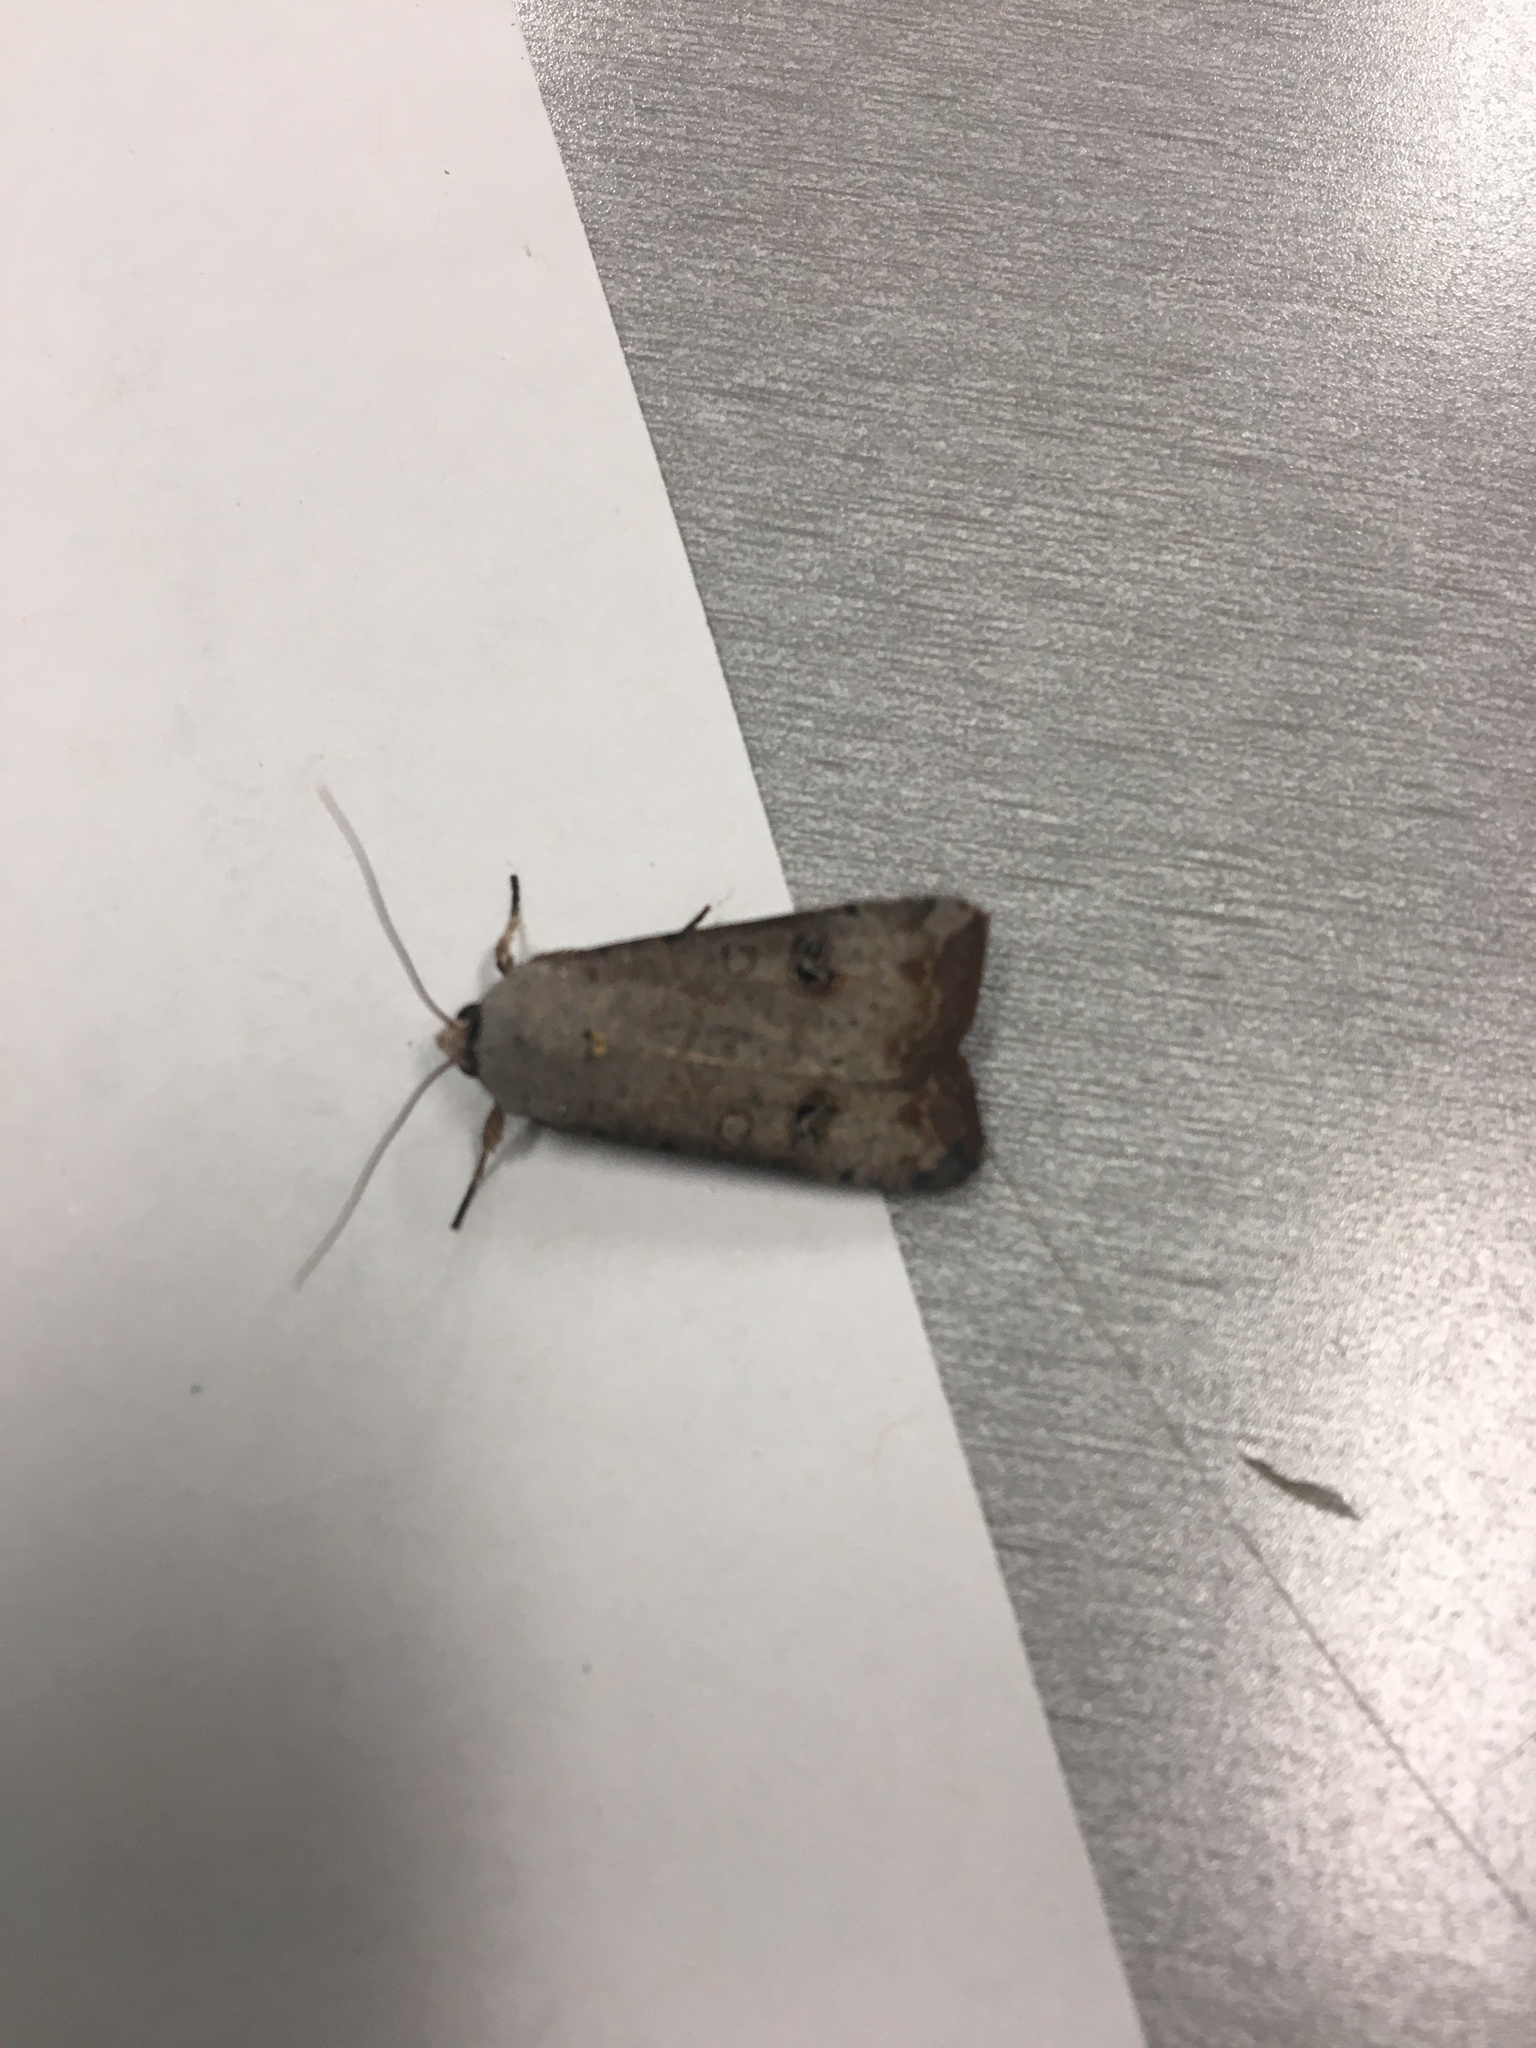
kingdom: Animalia
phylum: Arthropoda
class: Insecta
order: Lepidoptera
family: Noctuidae
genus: Anicla
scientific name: Anicla infecta
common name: Green cutworm
